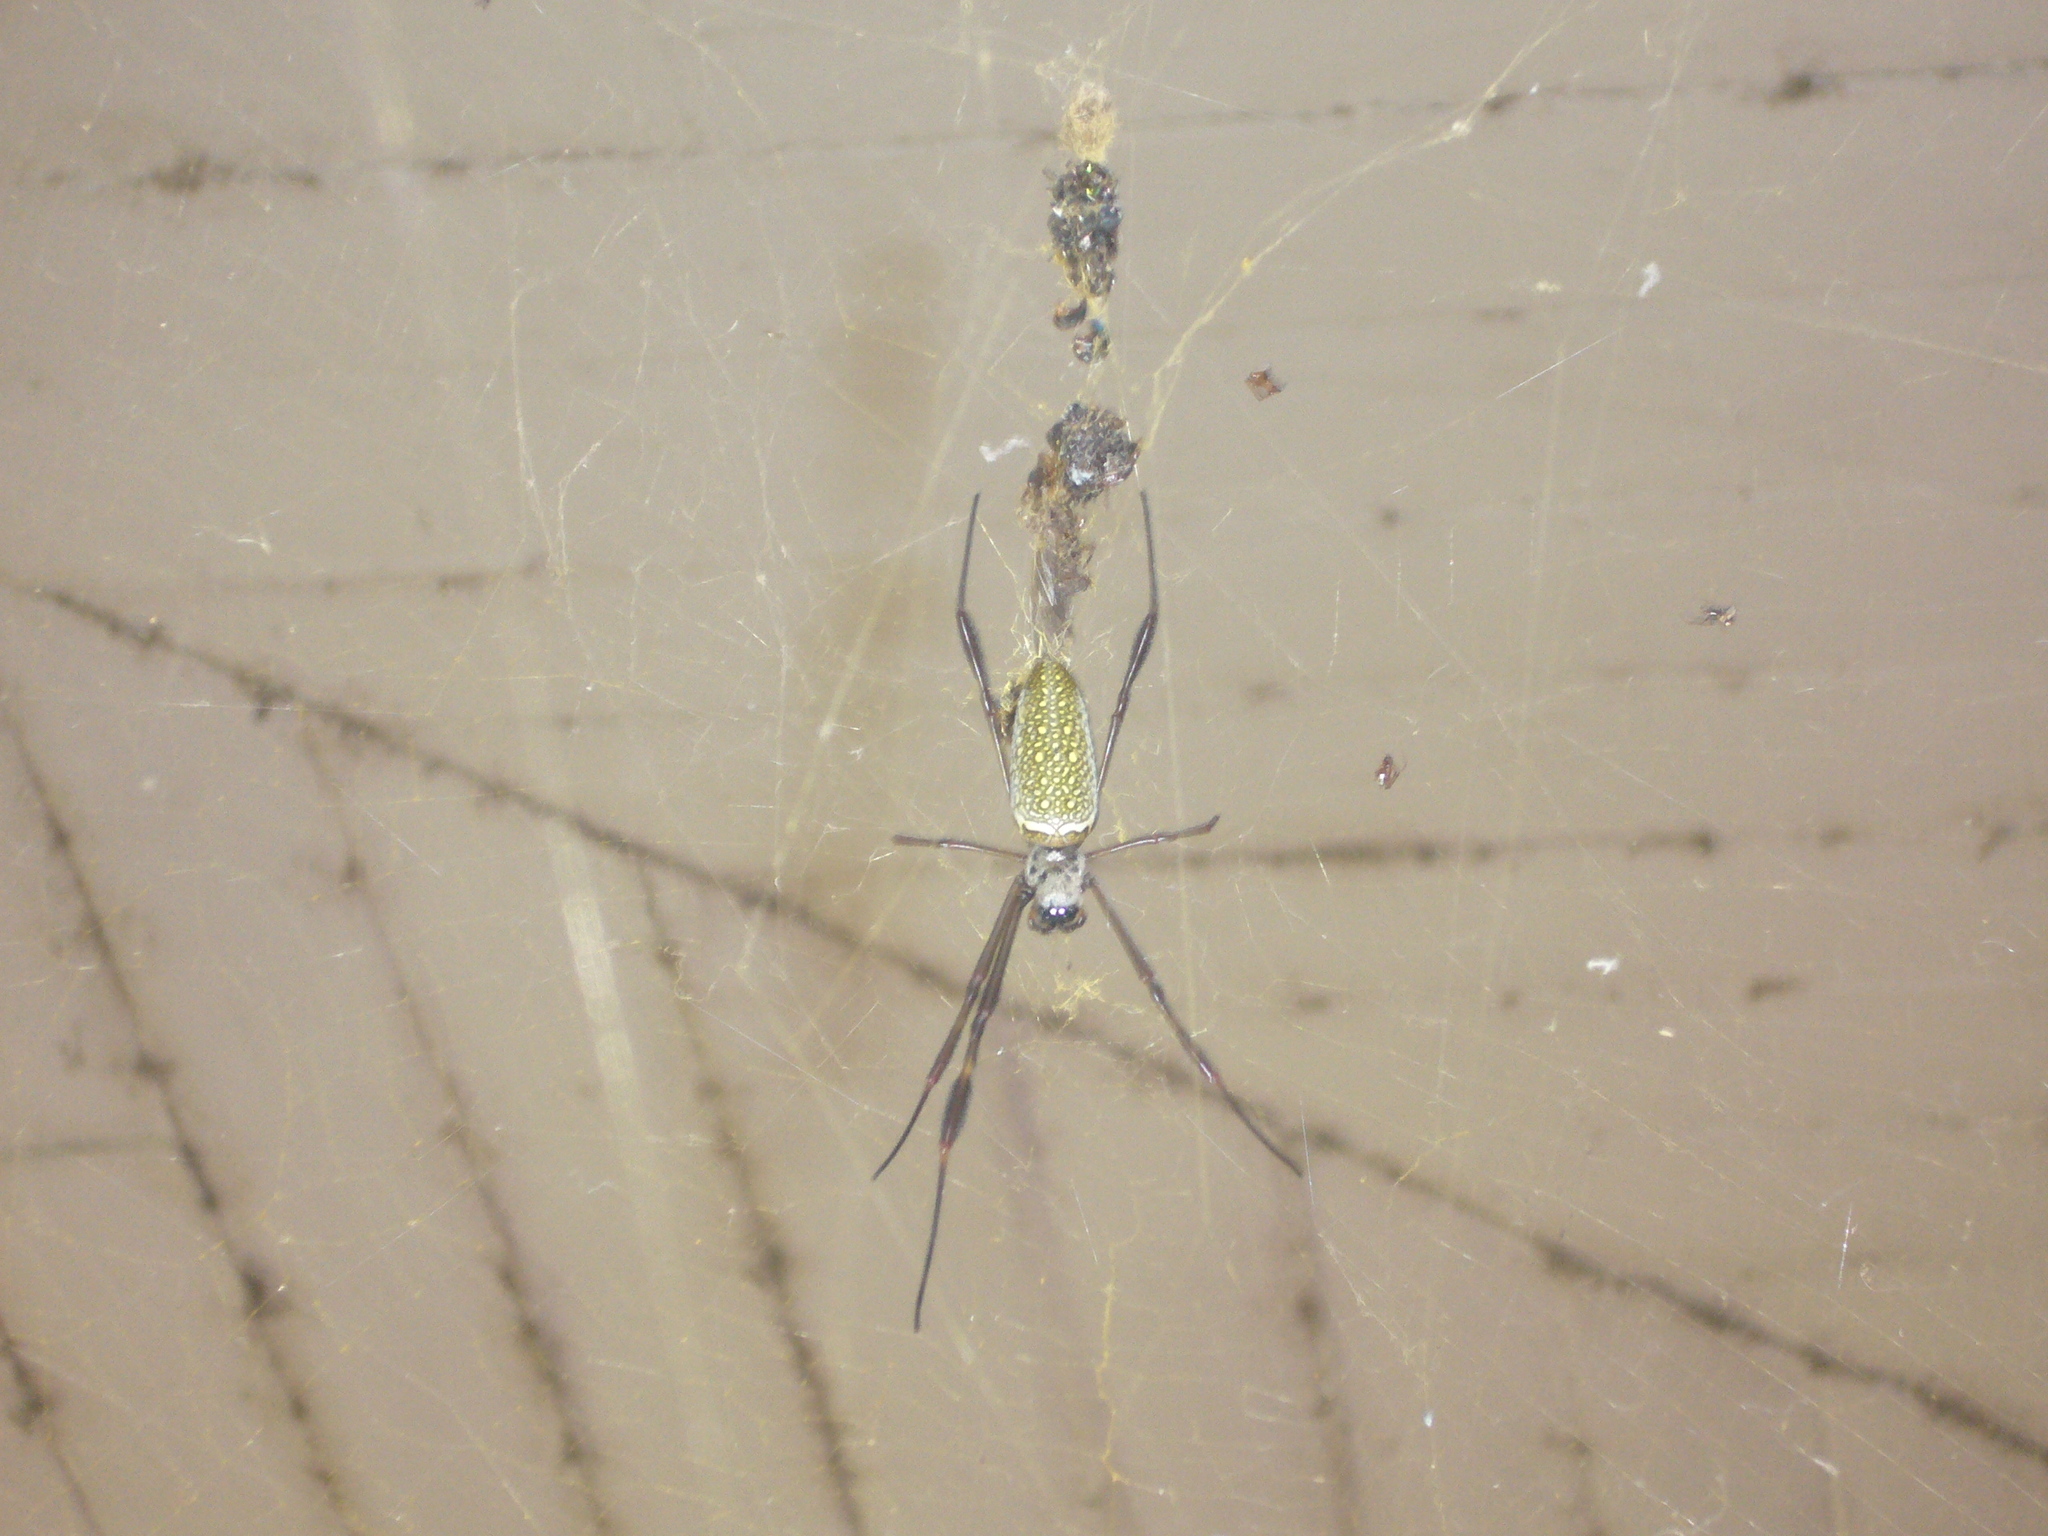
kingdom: Animalia
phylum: Arthropoda
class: Arachnida
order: Araneae
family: Araneidae
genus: Trichonephila
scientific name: Trichonephila clavipes
